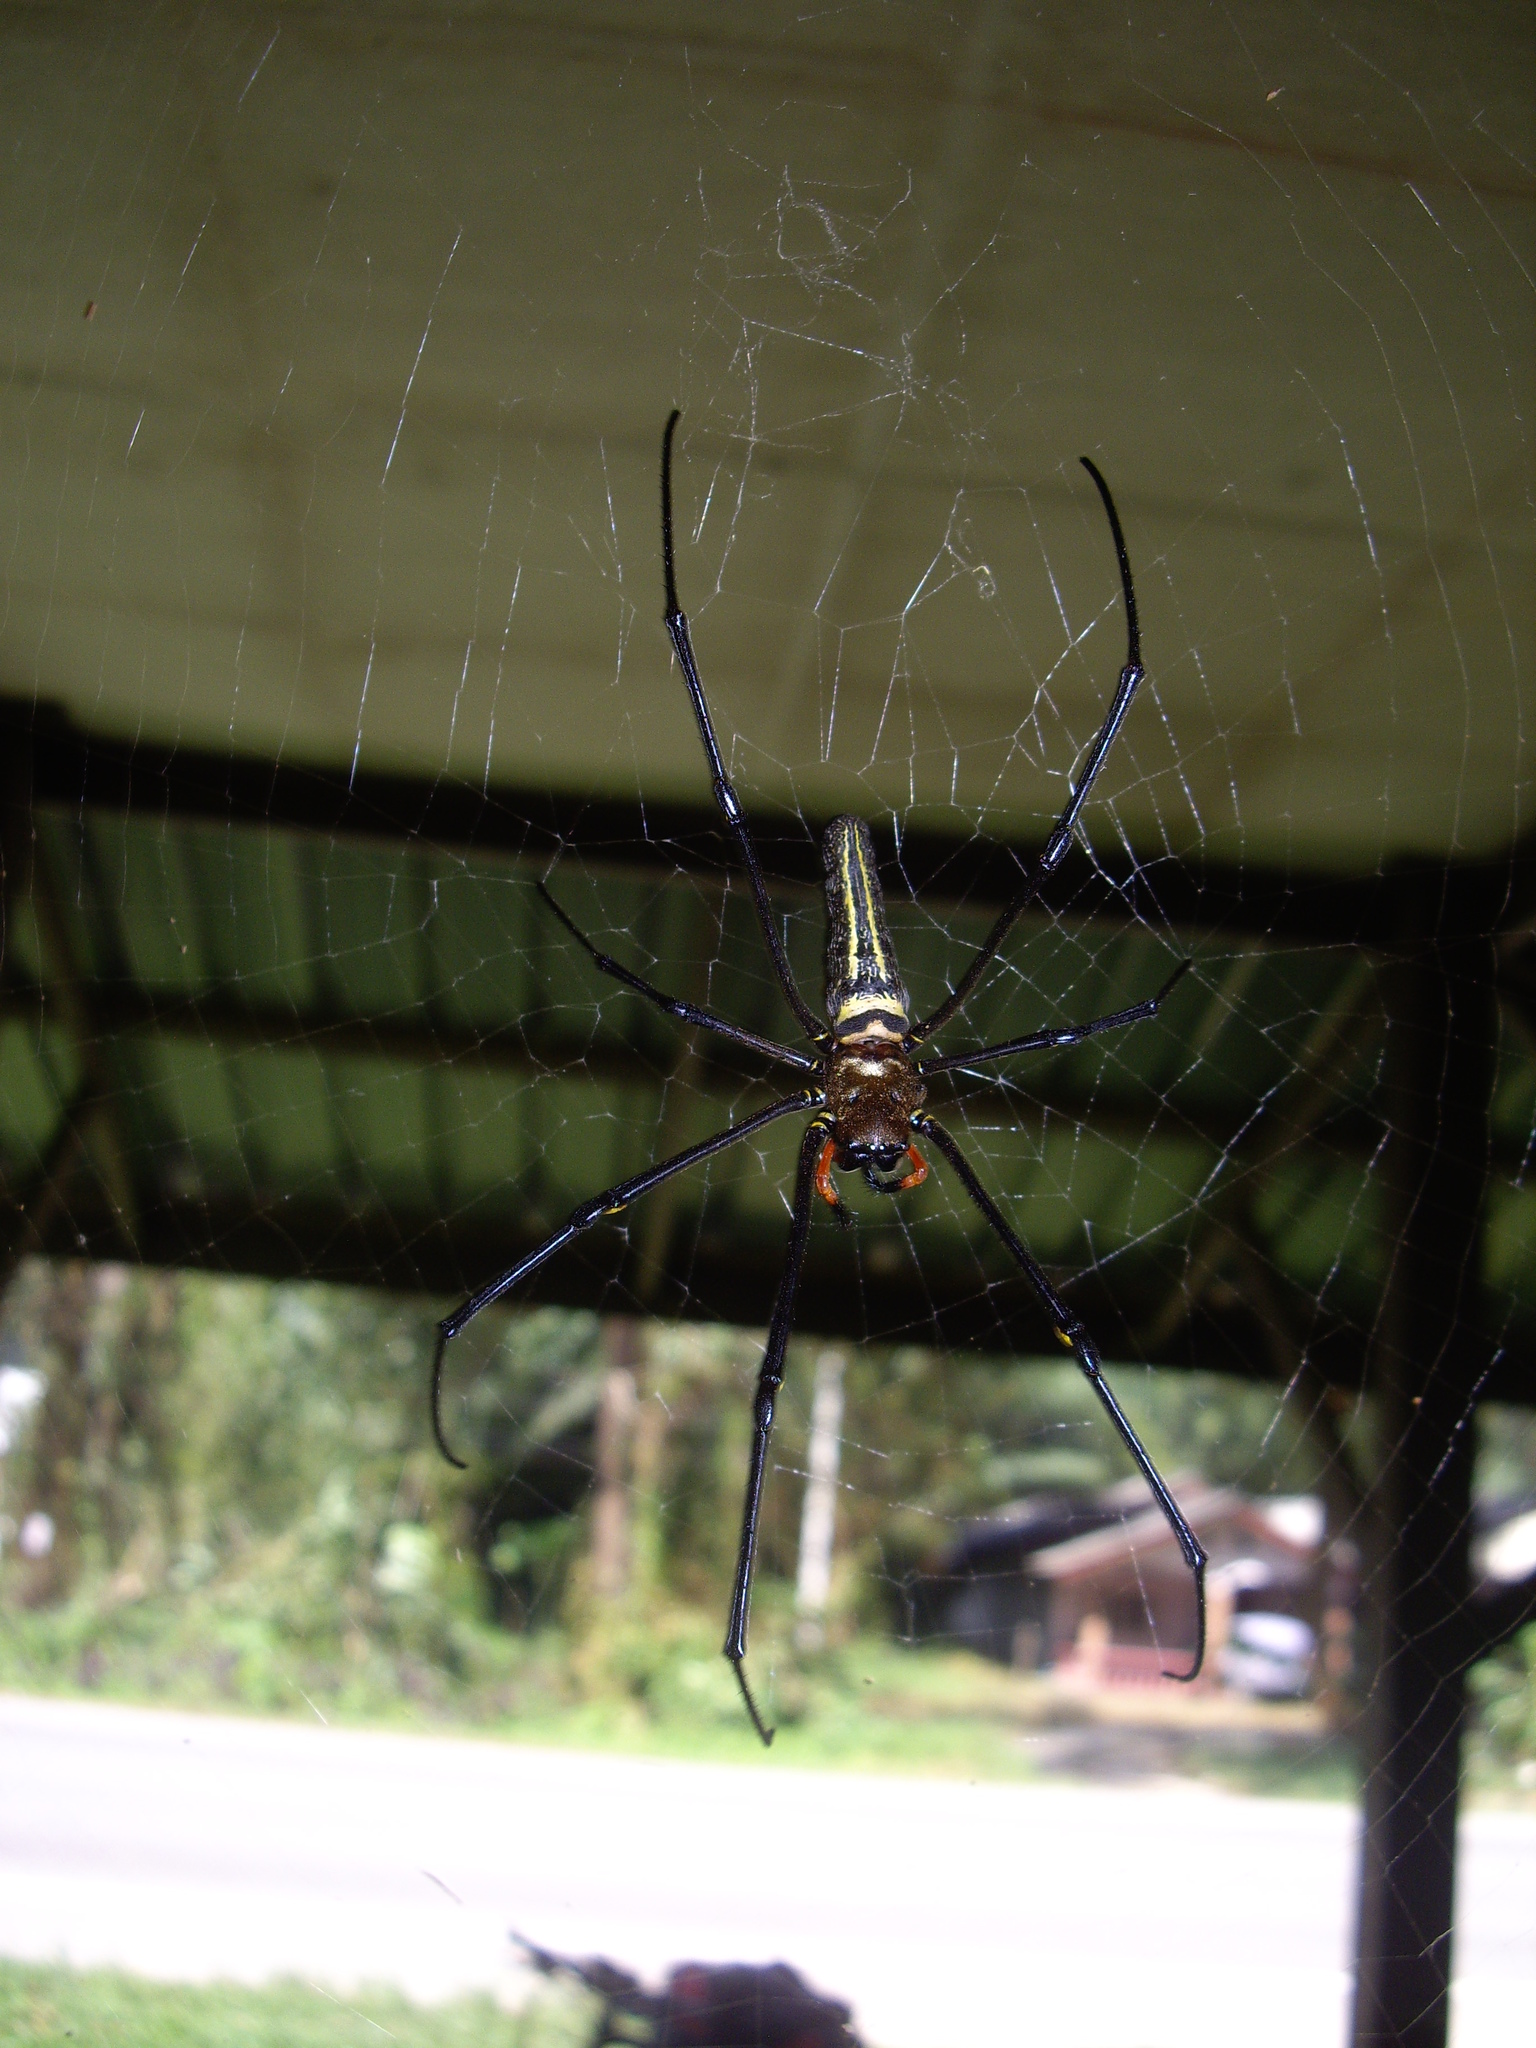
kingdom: Animalia
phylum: Arthropoda
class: Arachnida
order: Araneae
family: Araneidae
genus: Nephila
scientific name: Nephila pilipes
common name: Giant golden orb weaver
